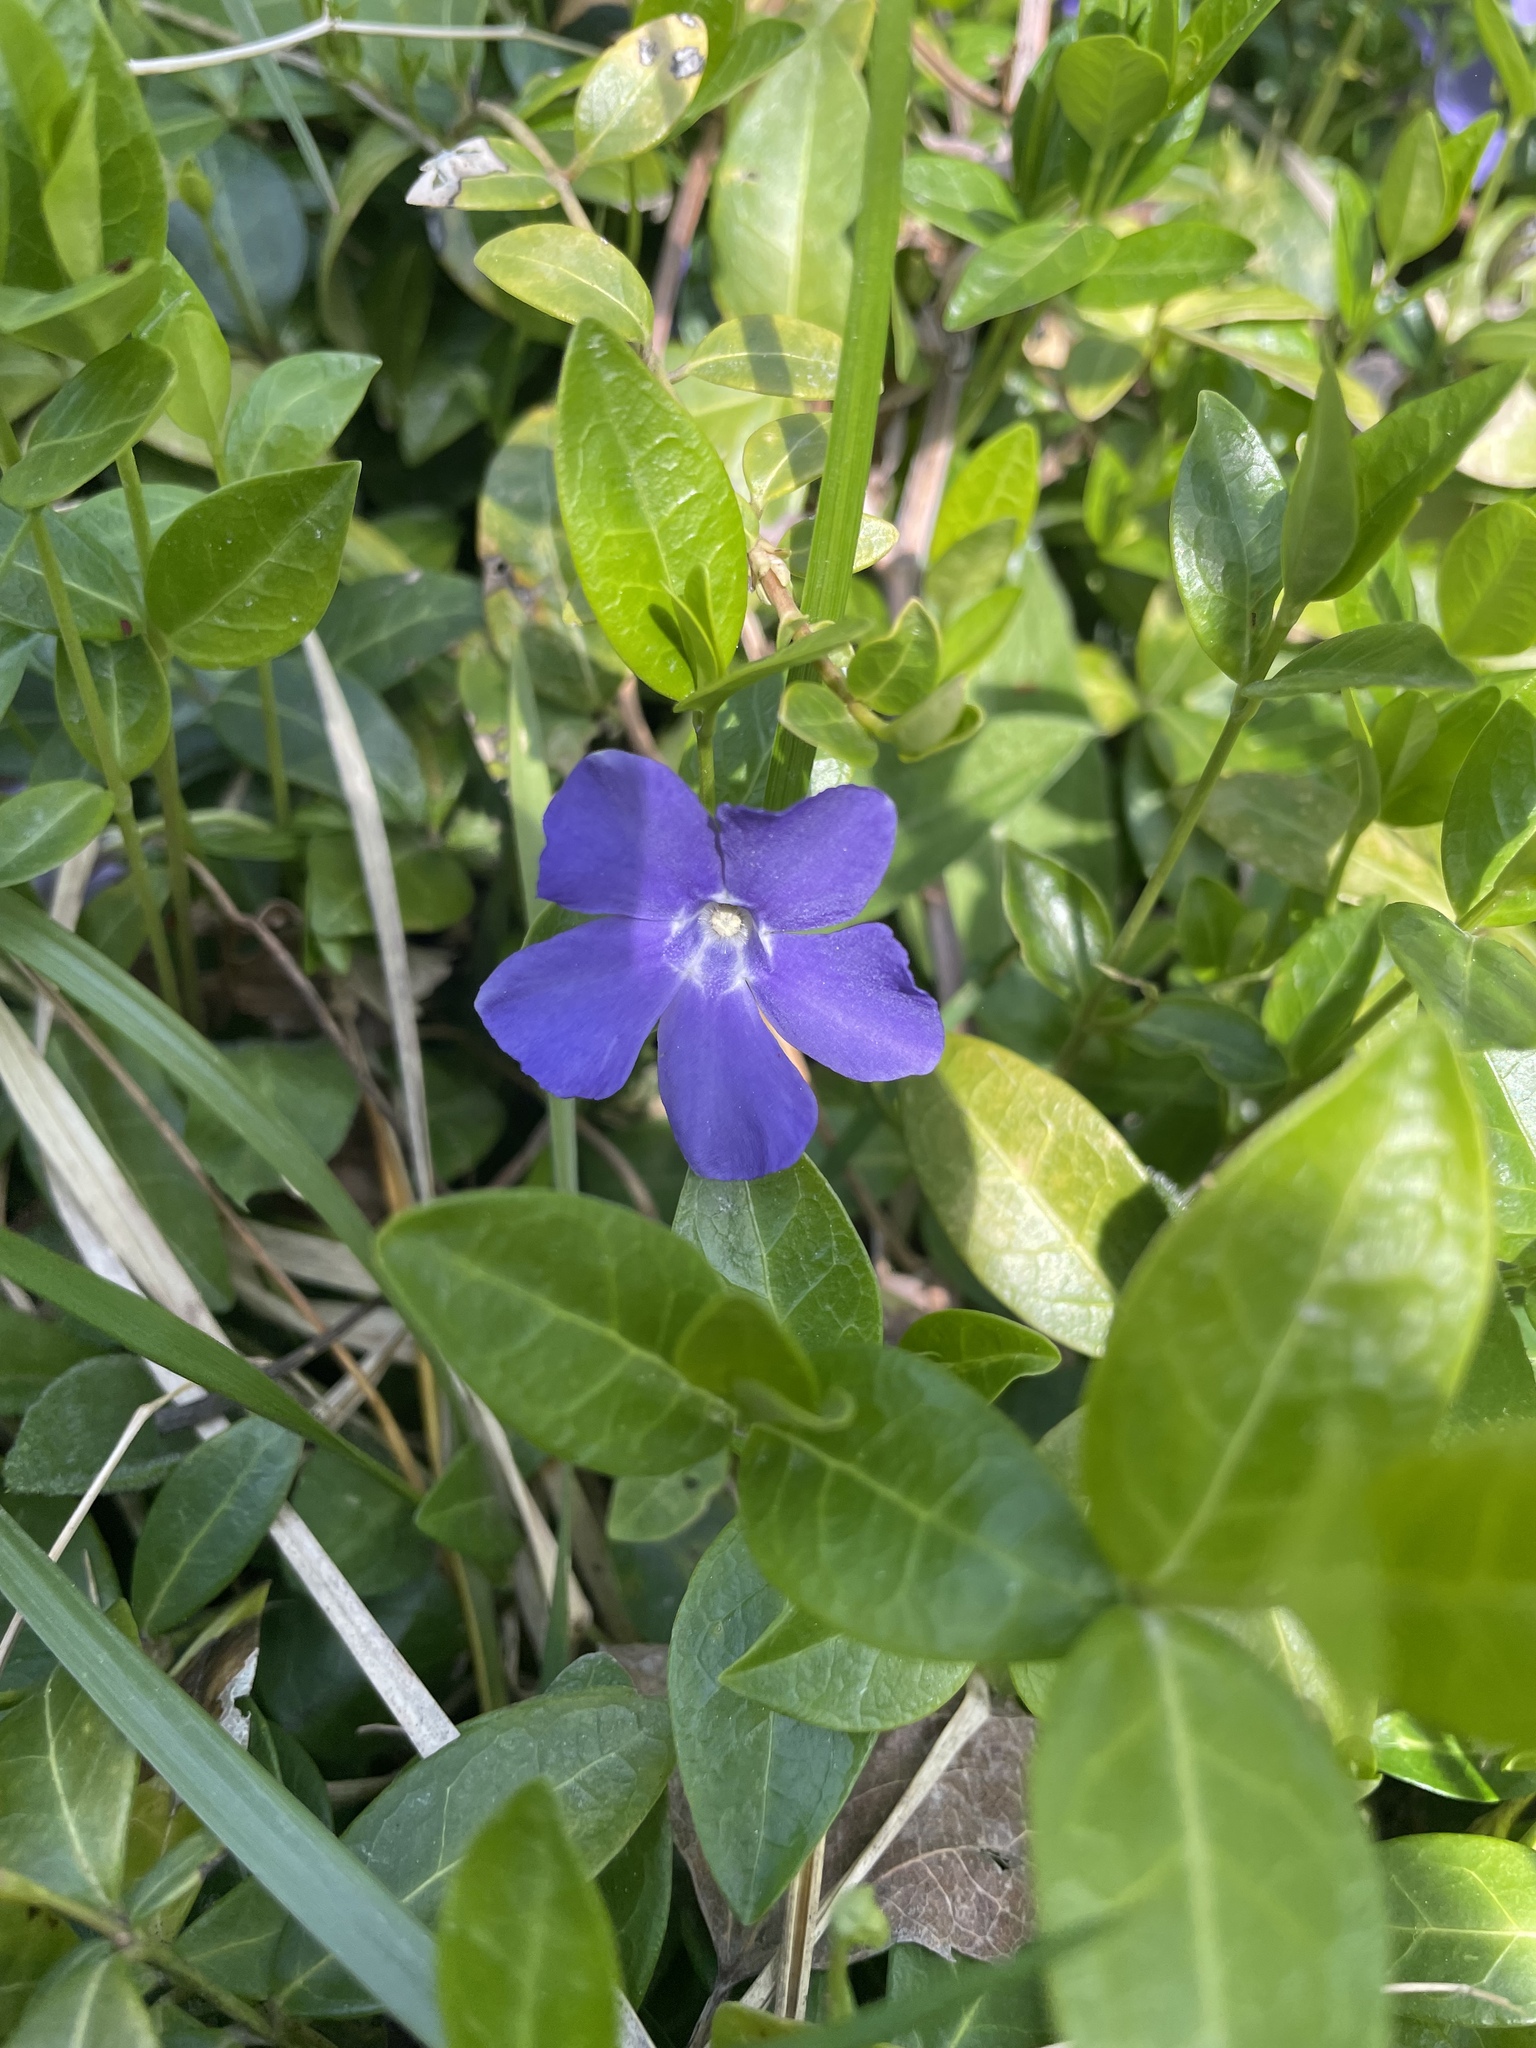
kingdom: Plantae
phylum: Tracheophyta
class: Magnoliopsida
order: Gentianales
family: Apocynaceae
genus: Vinca
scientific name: Vinca minor
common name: Lesser periwinkle
